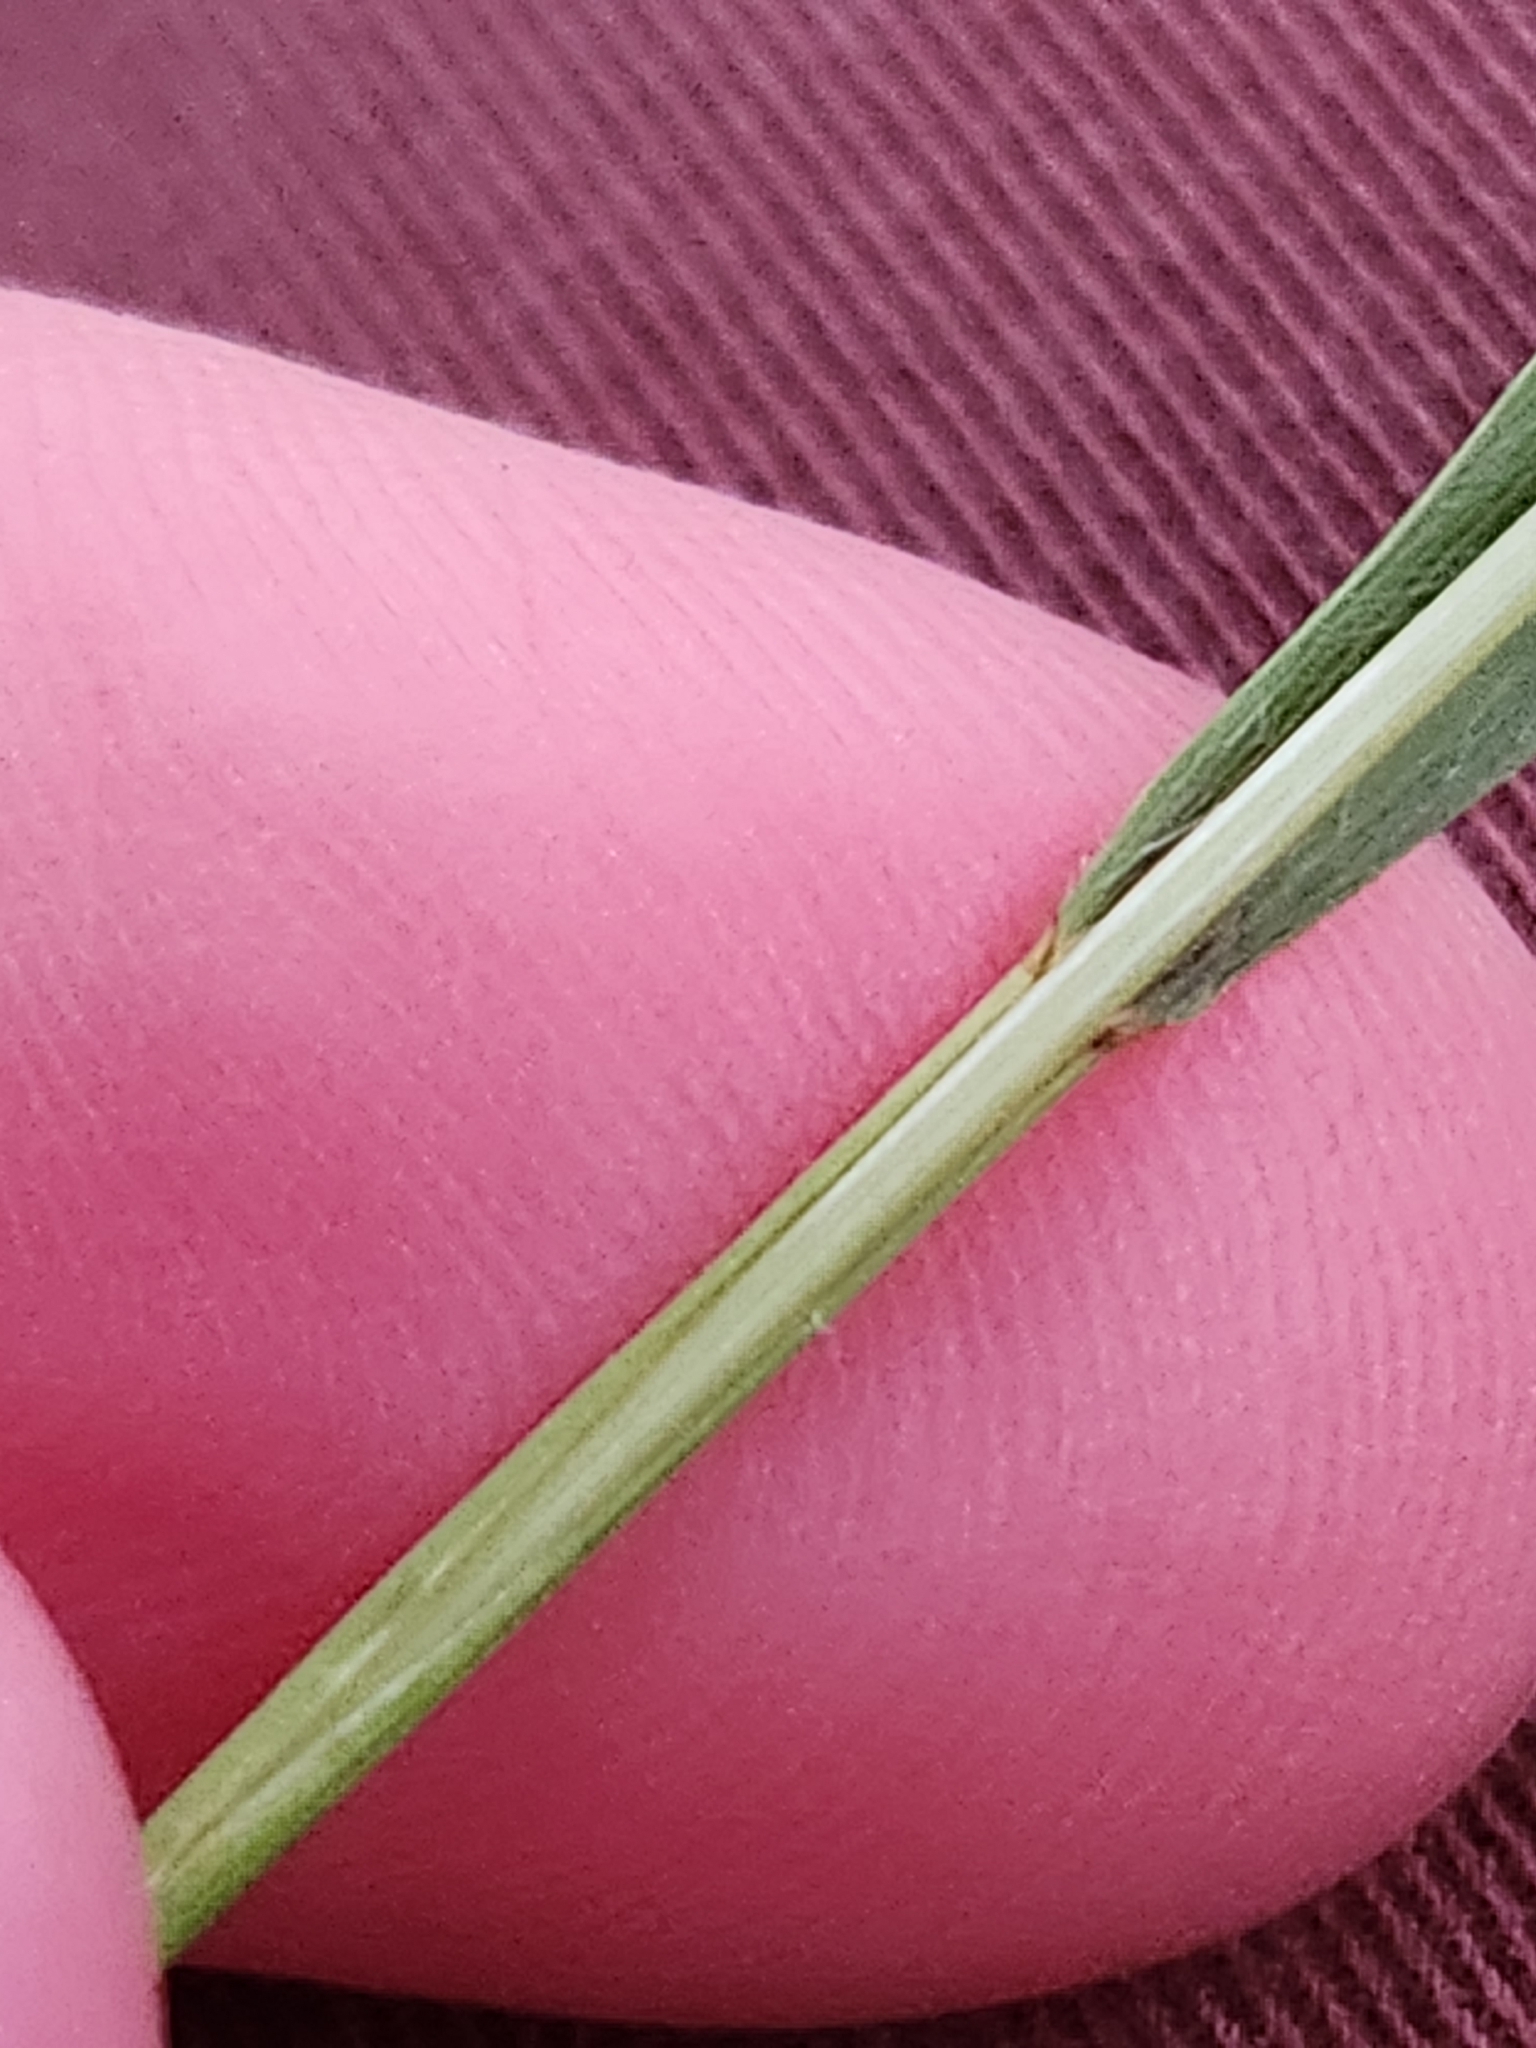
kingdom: Plantae
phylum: Tracheophyta
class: Liliopsida
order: Poales
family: Poaceae
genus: Bromus
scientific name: Bromus ciliatus
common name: Fringe brome
